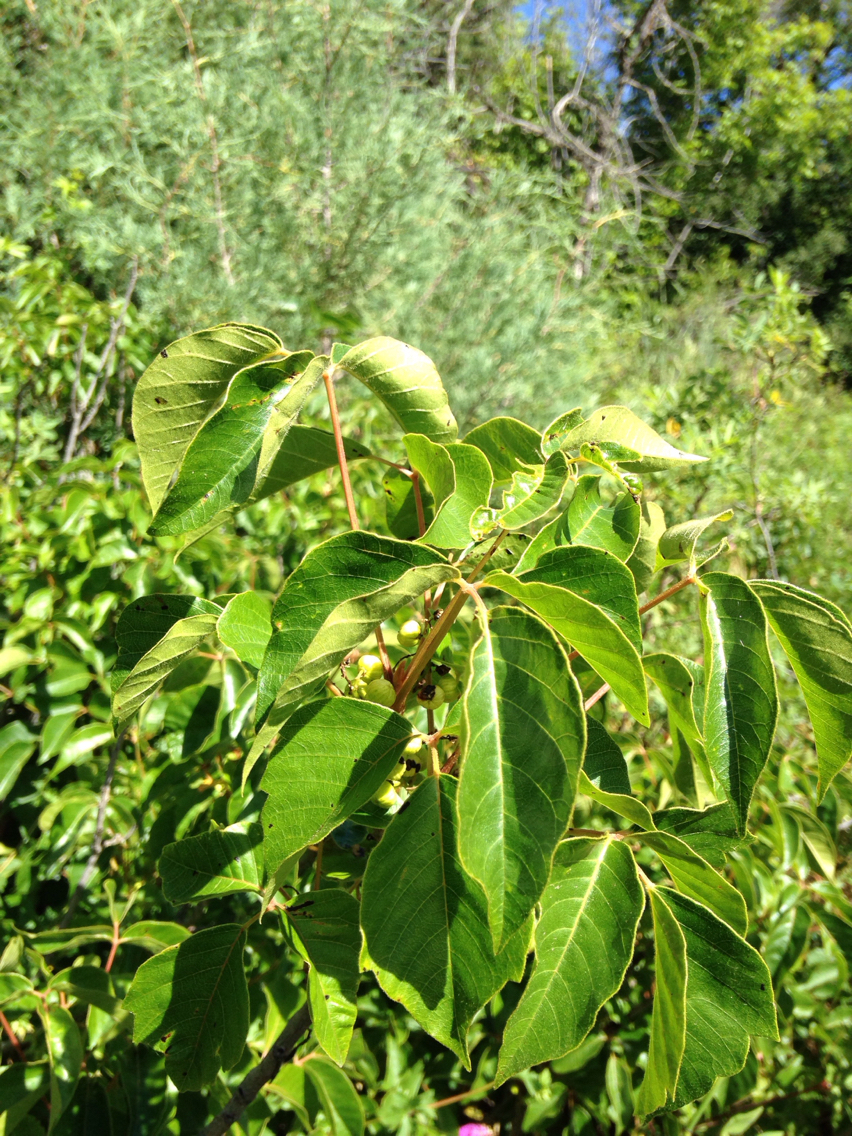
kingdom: Plantae
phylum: Tracheophyta
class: Magnoliopsida
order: Sapindales
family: Anacardiaceae
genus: Toxicodendron
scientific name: Toxicodendron rydbergii
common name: Rydberg's poison-ivy
